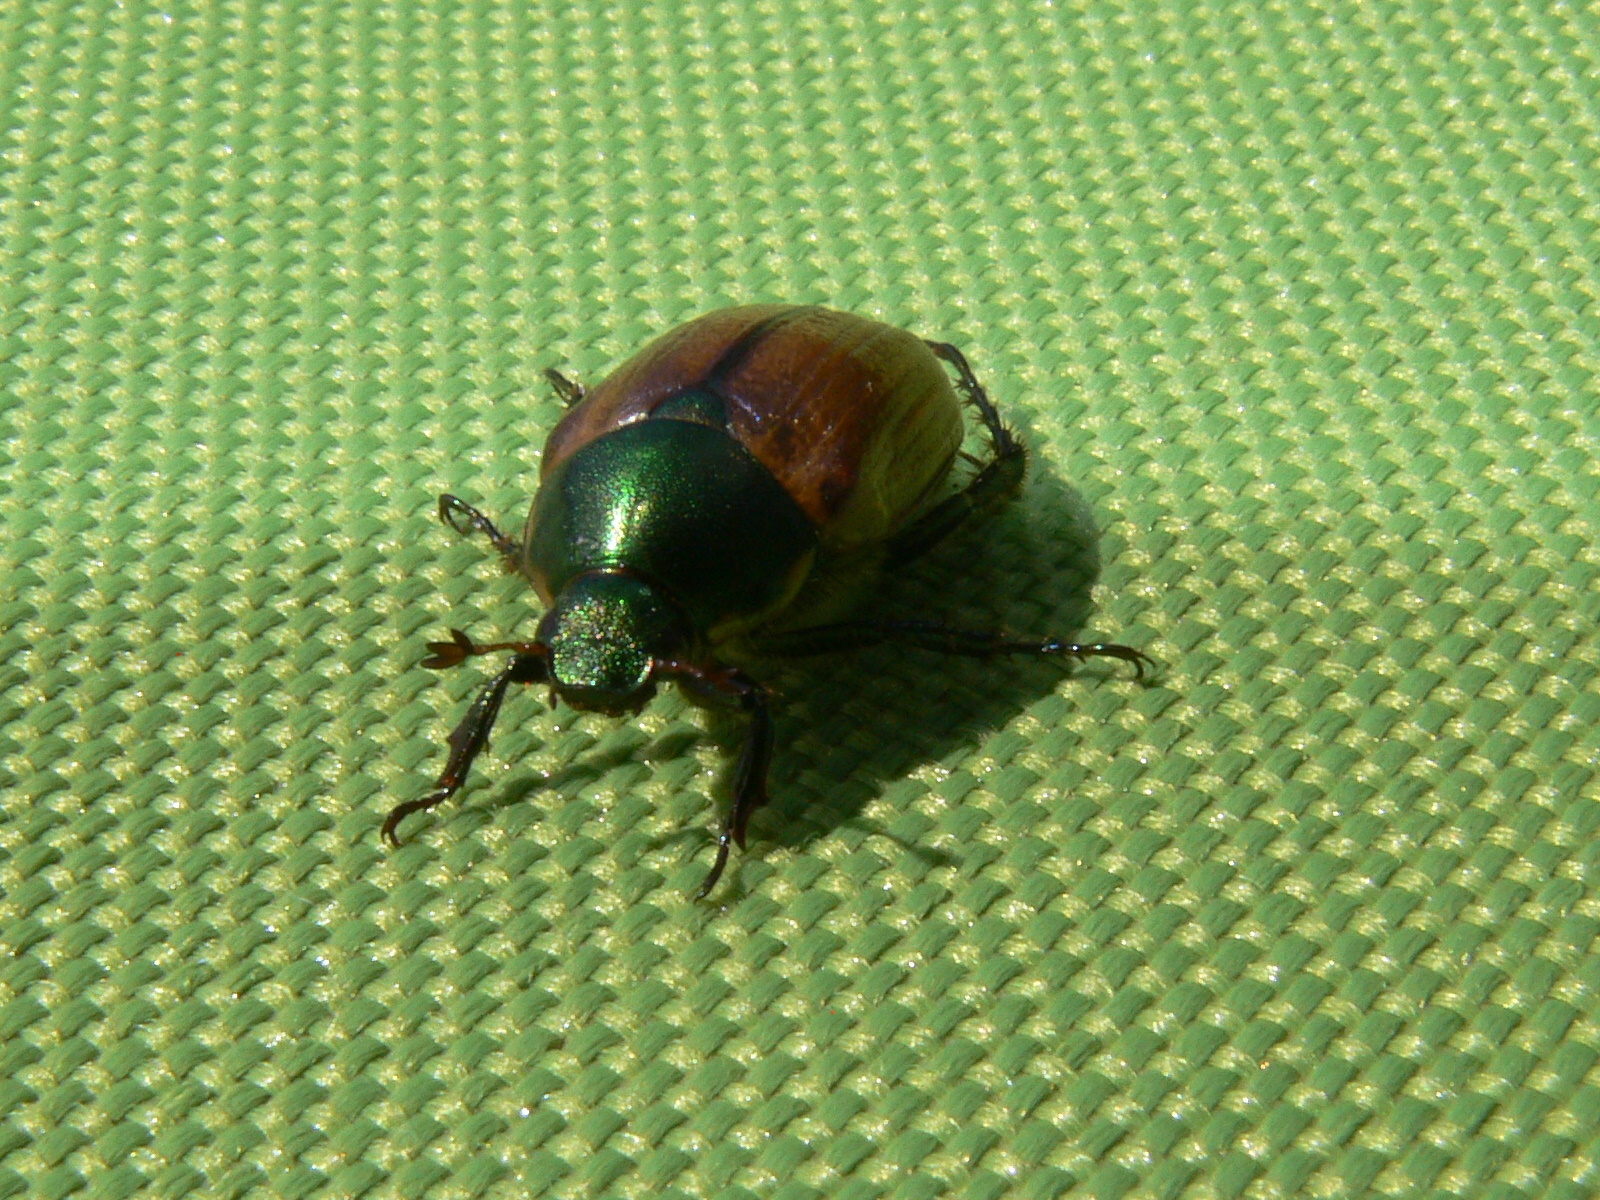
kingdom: Animalia
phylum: Arthropoda
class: Insecta
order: Coleoptera
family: Scarabaeidae
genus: Anomala
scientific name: Anomala dubia
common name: Dune chafer
